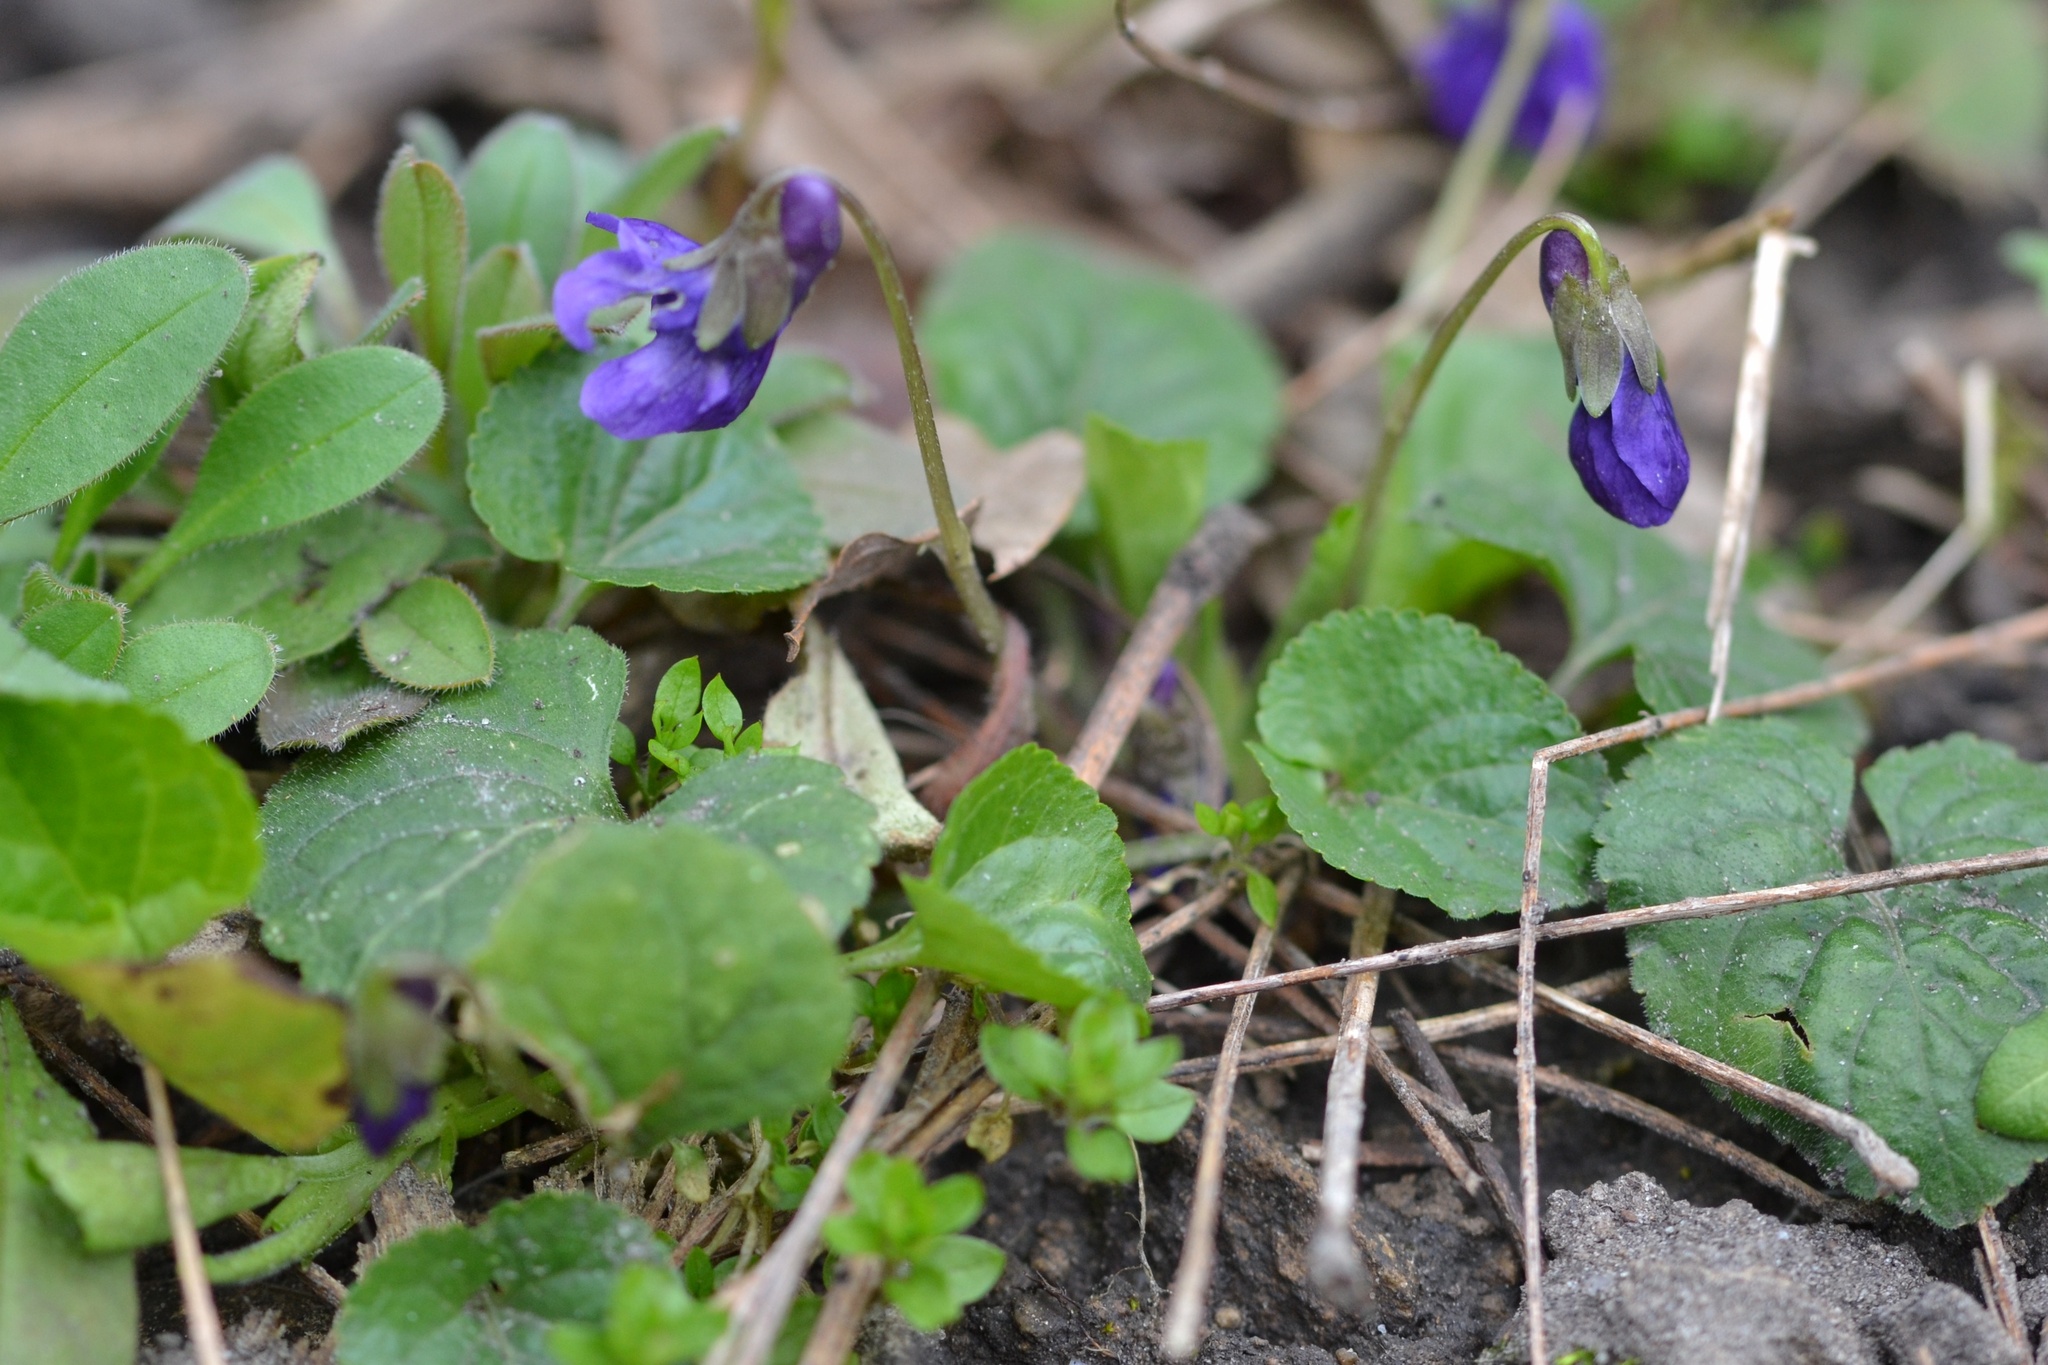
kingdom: Plantae
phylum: Tracheophyta
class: Magnoliopsida
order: Malpighiales
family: Violaceae
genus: Viola
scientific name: Viola odorata
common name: Sweet violet
